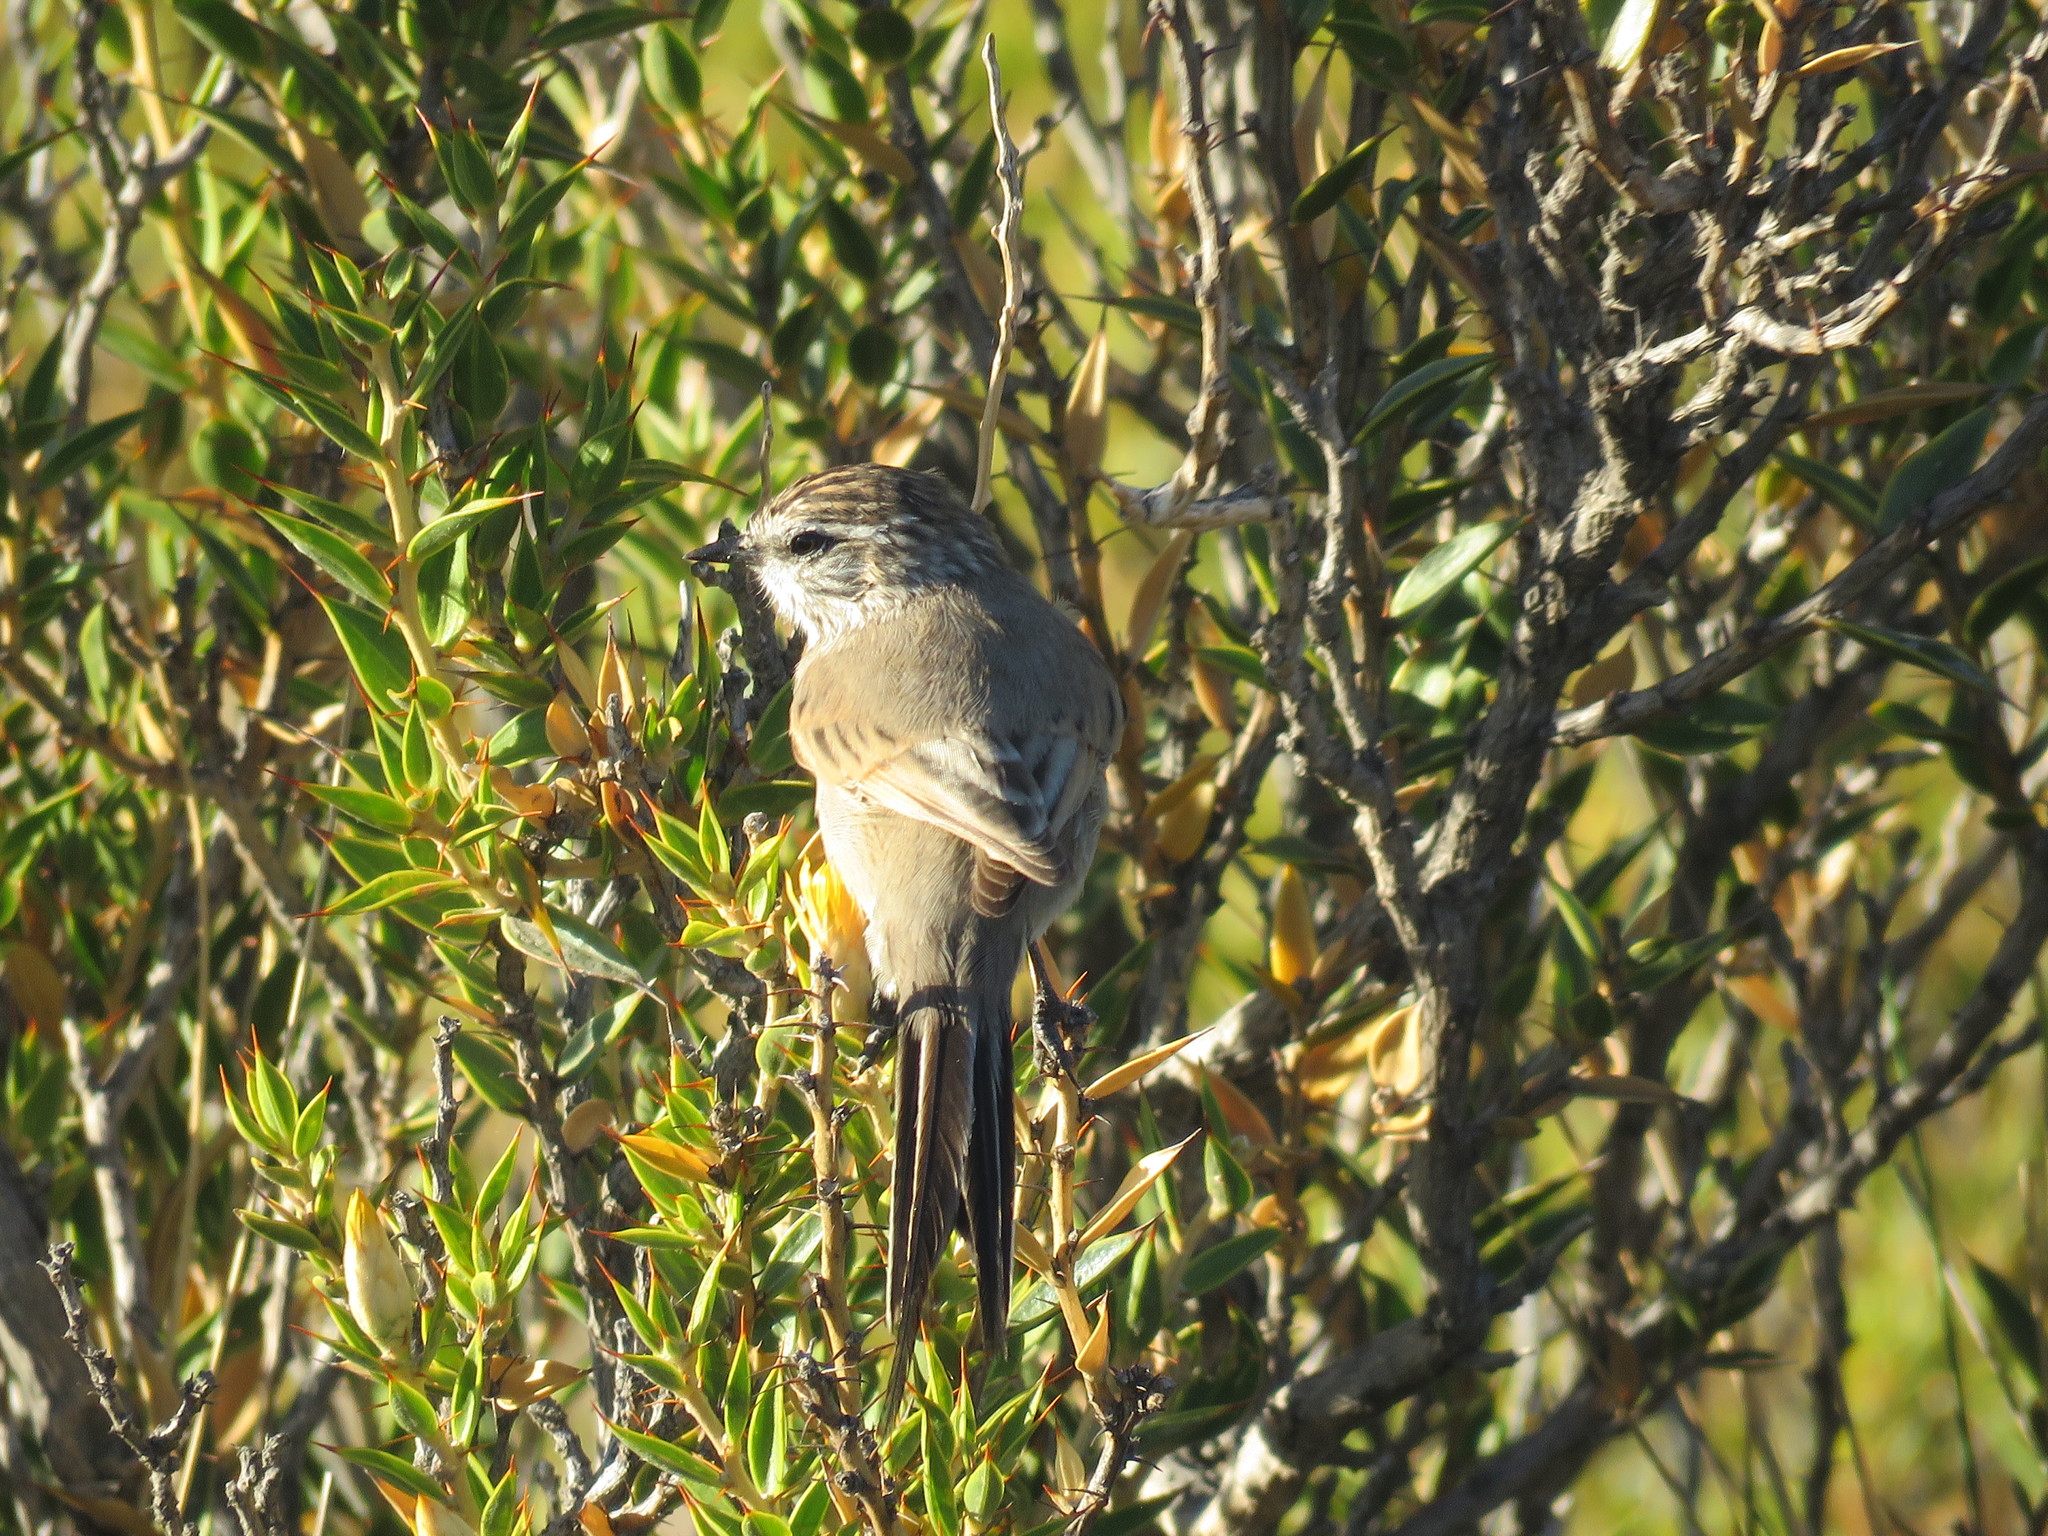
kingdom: Animalia
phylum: Chordata
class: Aves
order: Passeriformes
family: Furnariidae
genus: Leptasthenura
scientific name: Leptasthenura aegithaloides
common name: Plain-mantled tit-spinetail
